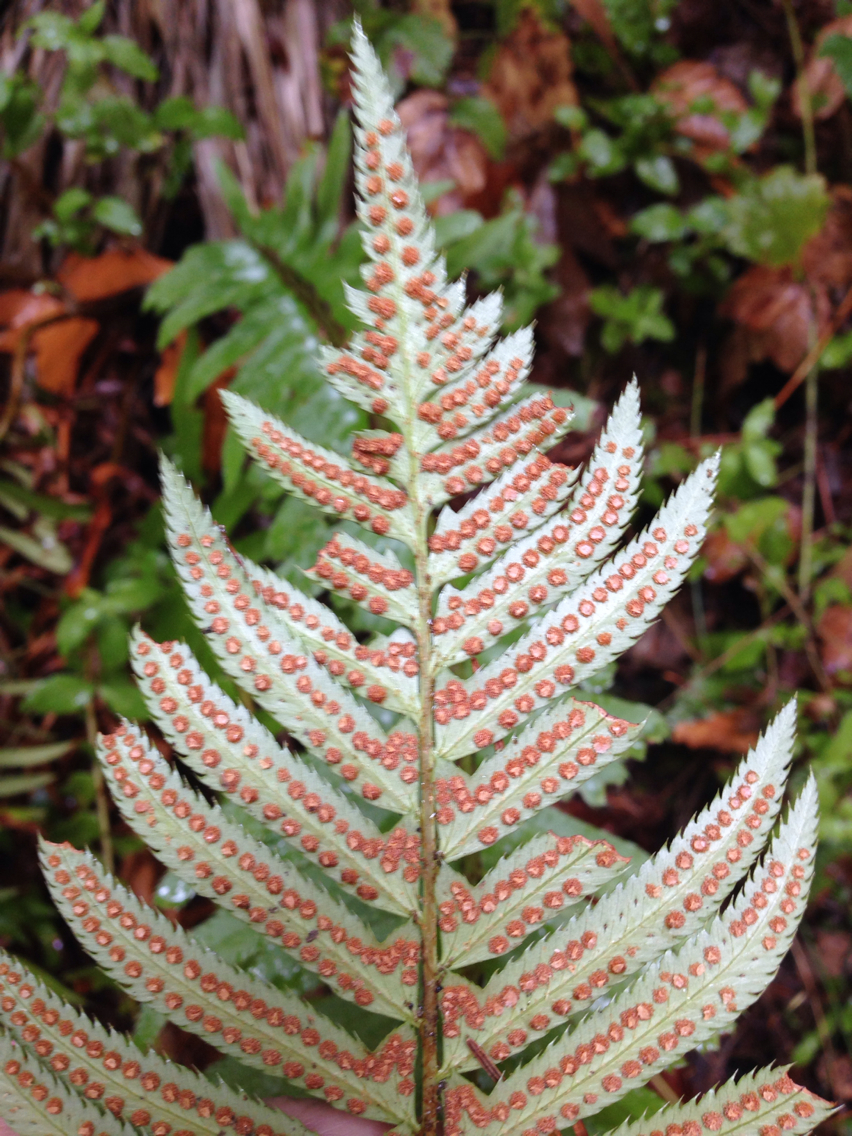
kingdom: Plantae
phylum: Tracheophyta
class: Polypodiopsida
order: Polypodiales
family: Dryopteridaceae
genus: Polystichum
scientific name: Polystichum munitum
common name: Western sword-fern
